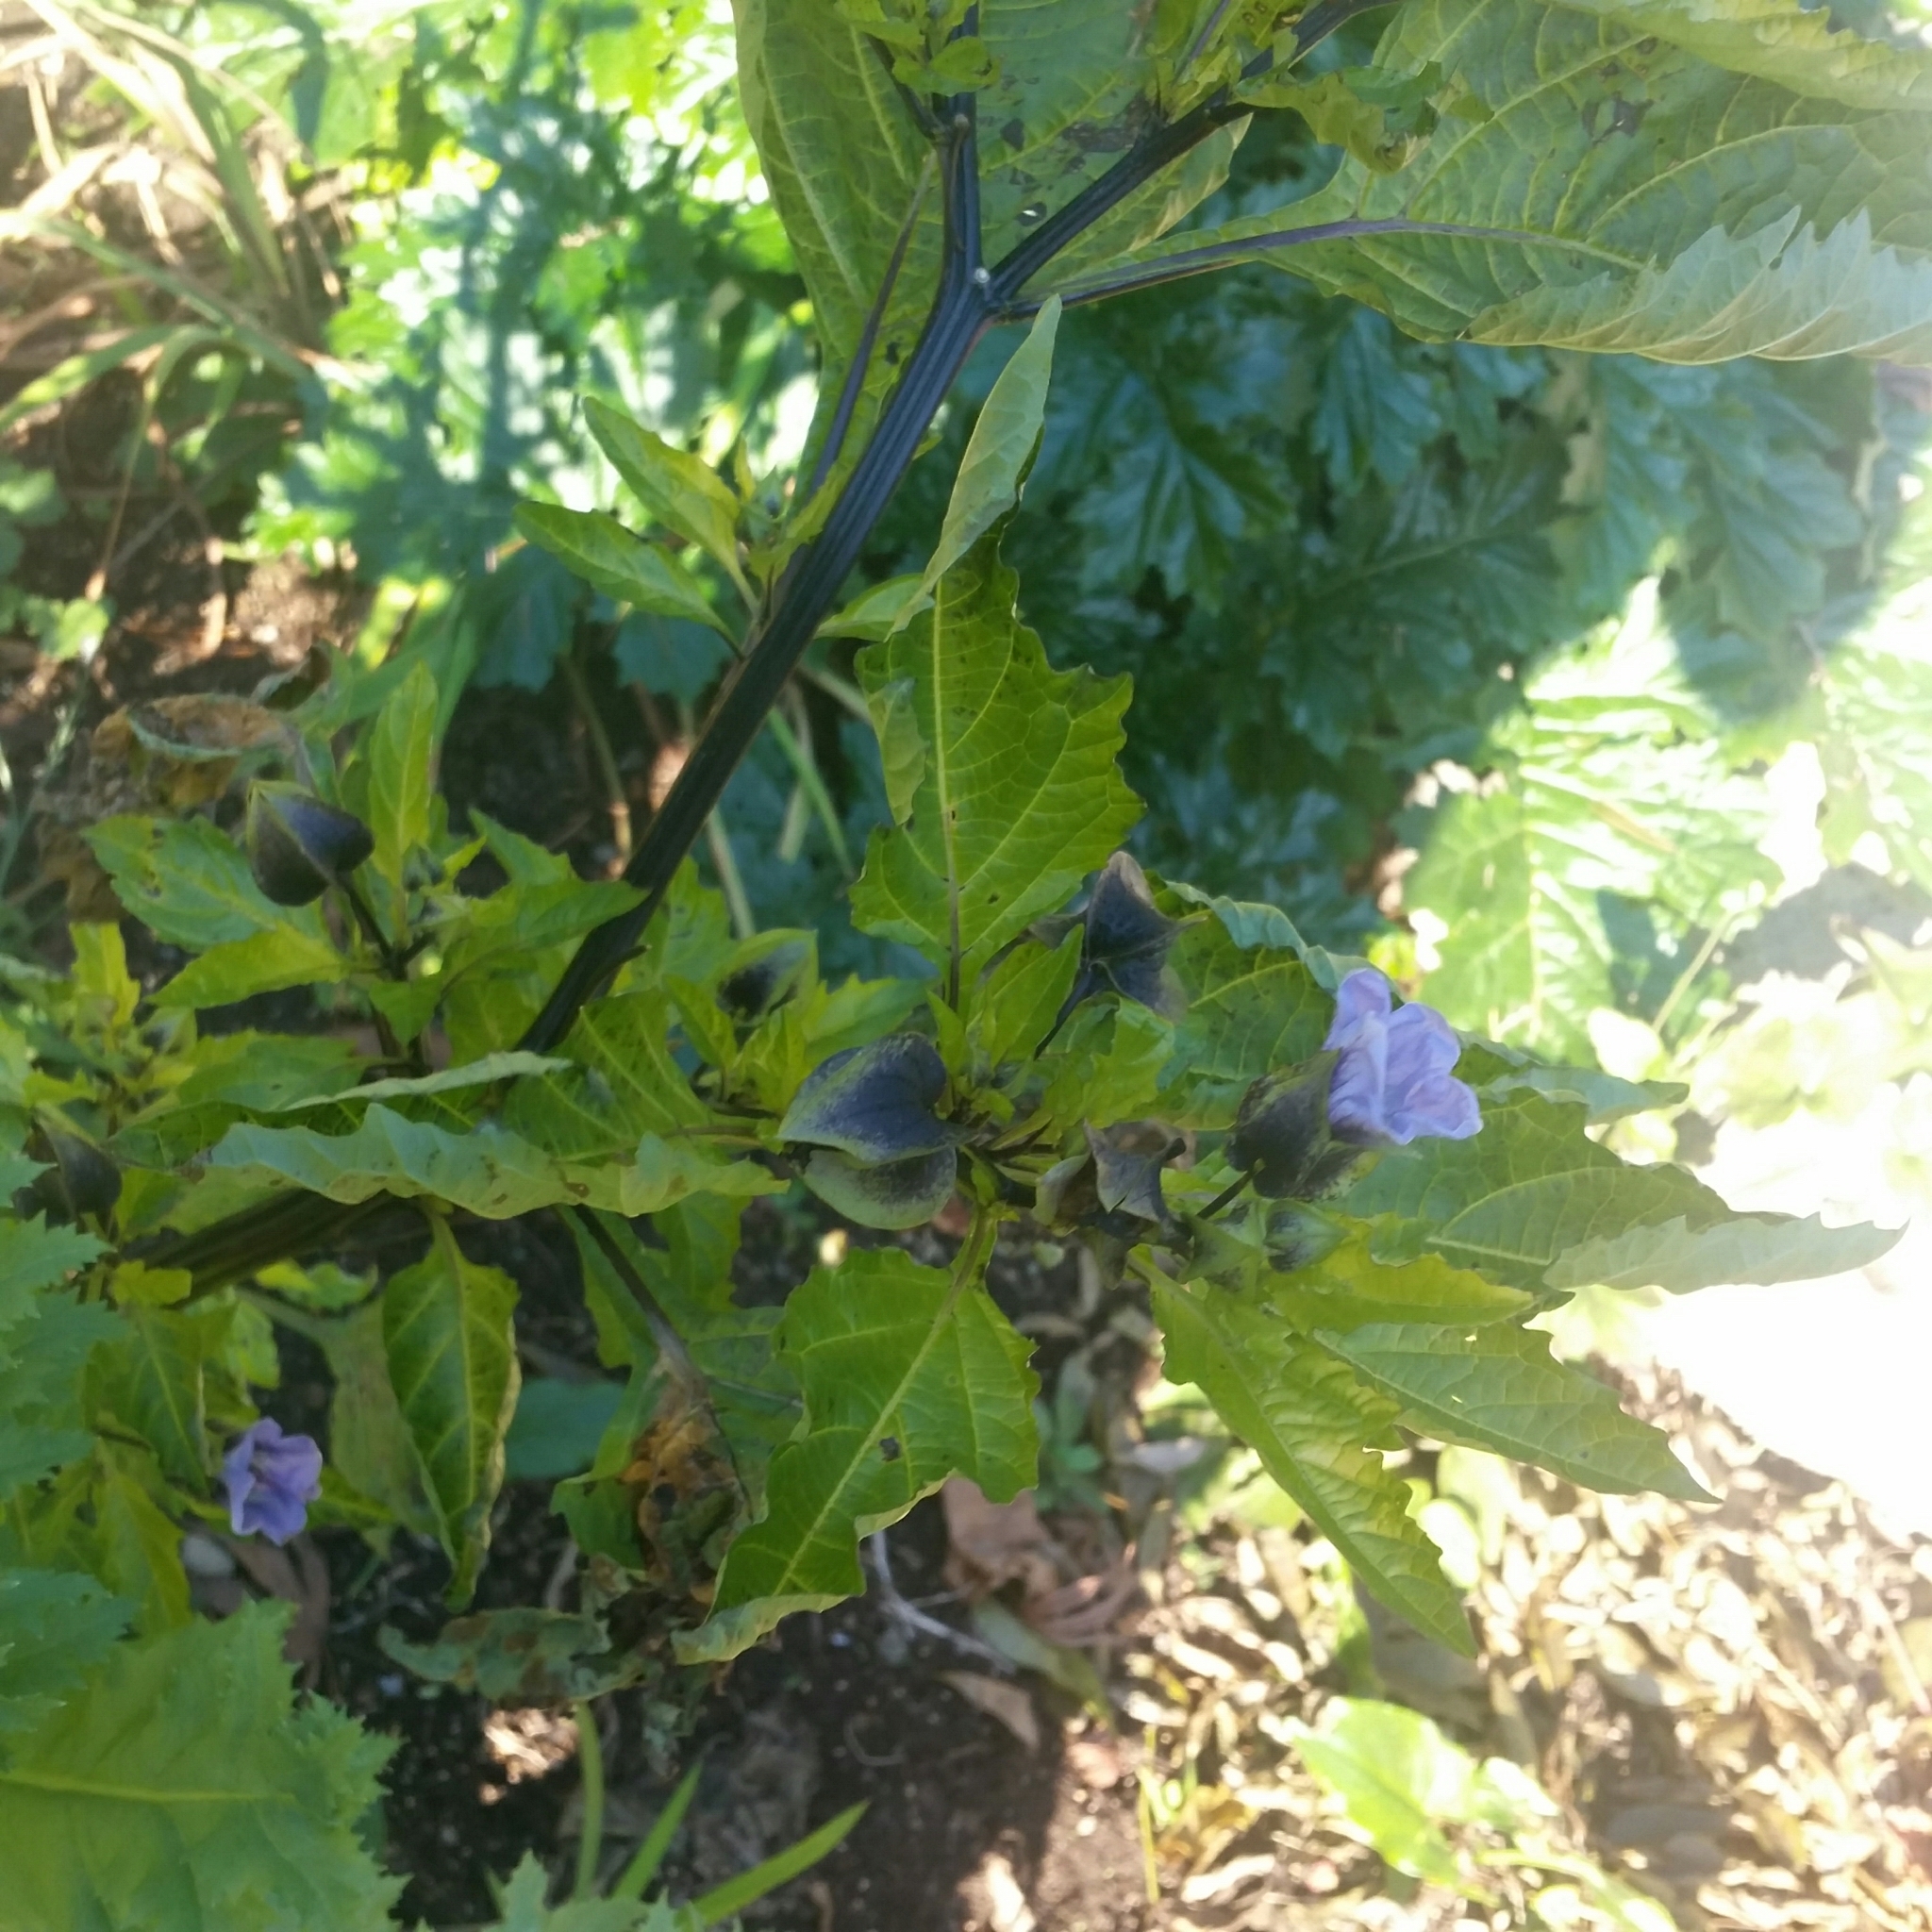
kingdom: Plantae
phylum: Tracheophyta
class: Magnoliopsida
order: Solanales
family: Solanaceae
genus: Nicandra
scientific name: Nicandra physalodes
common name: Apple-of-peru
